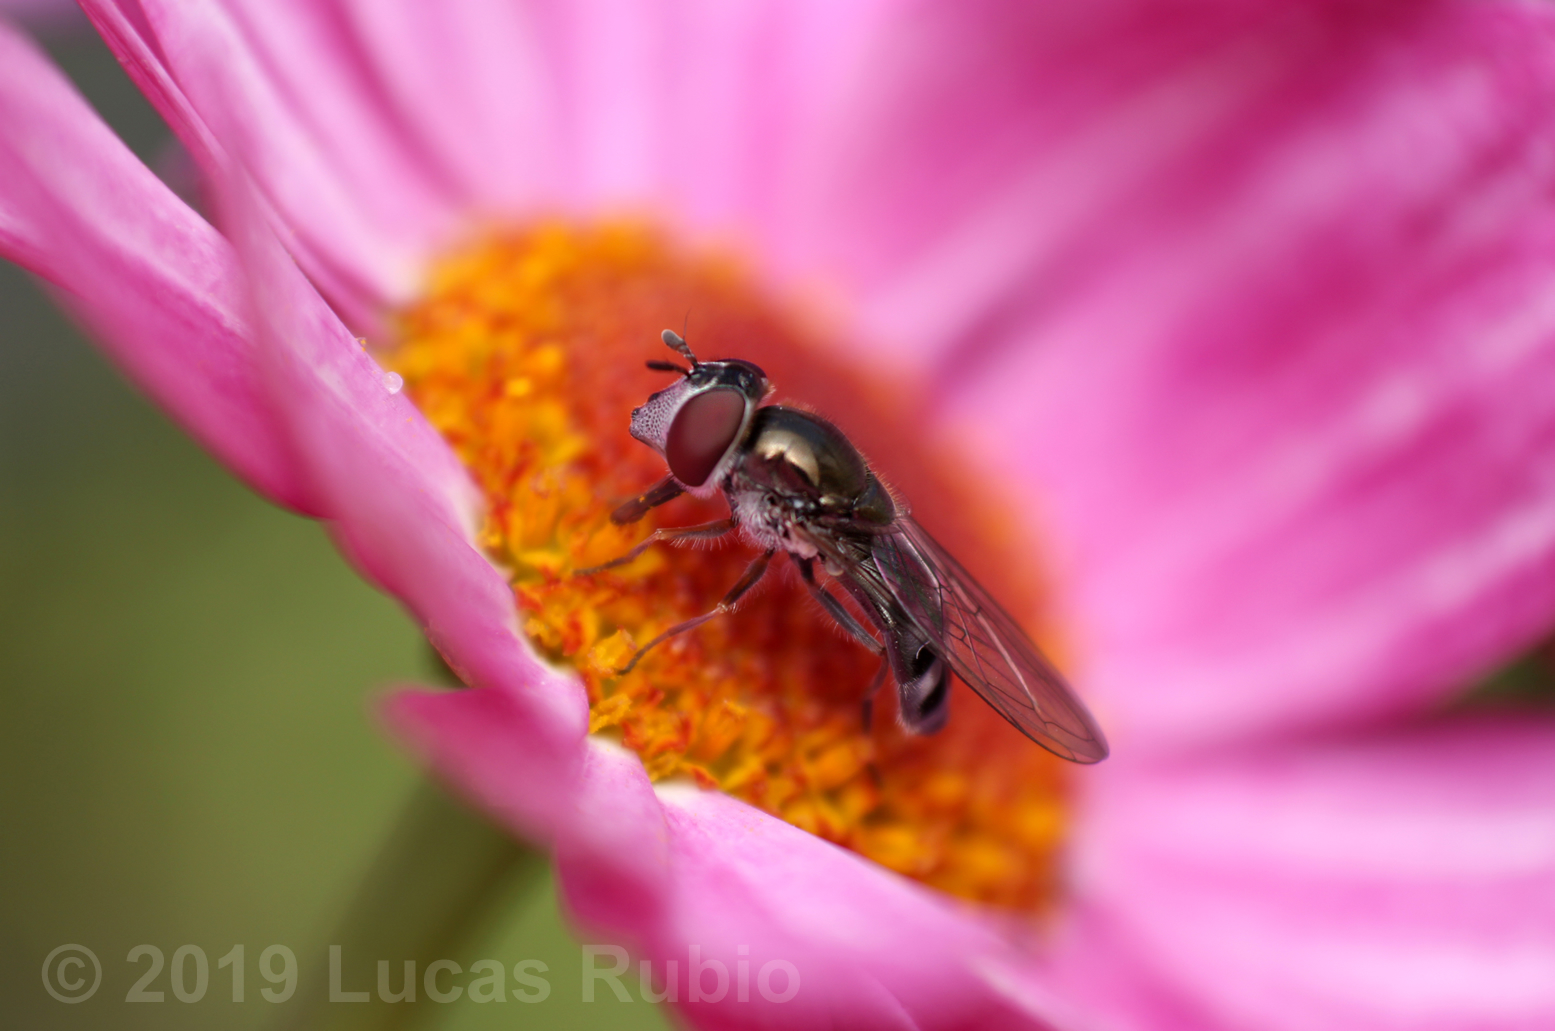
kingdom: Animalia
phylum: Arthropoda
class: Insecta
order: Diptera
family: Syrphidae
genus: Platycheirus
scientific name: Platycheirus fenestrata
